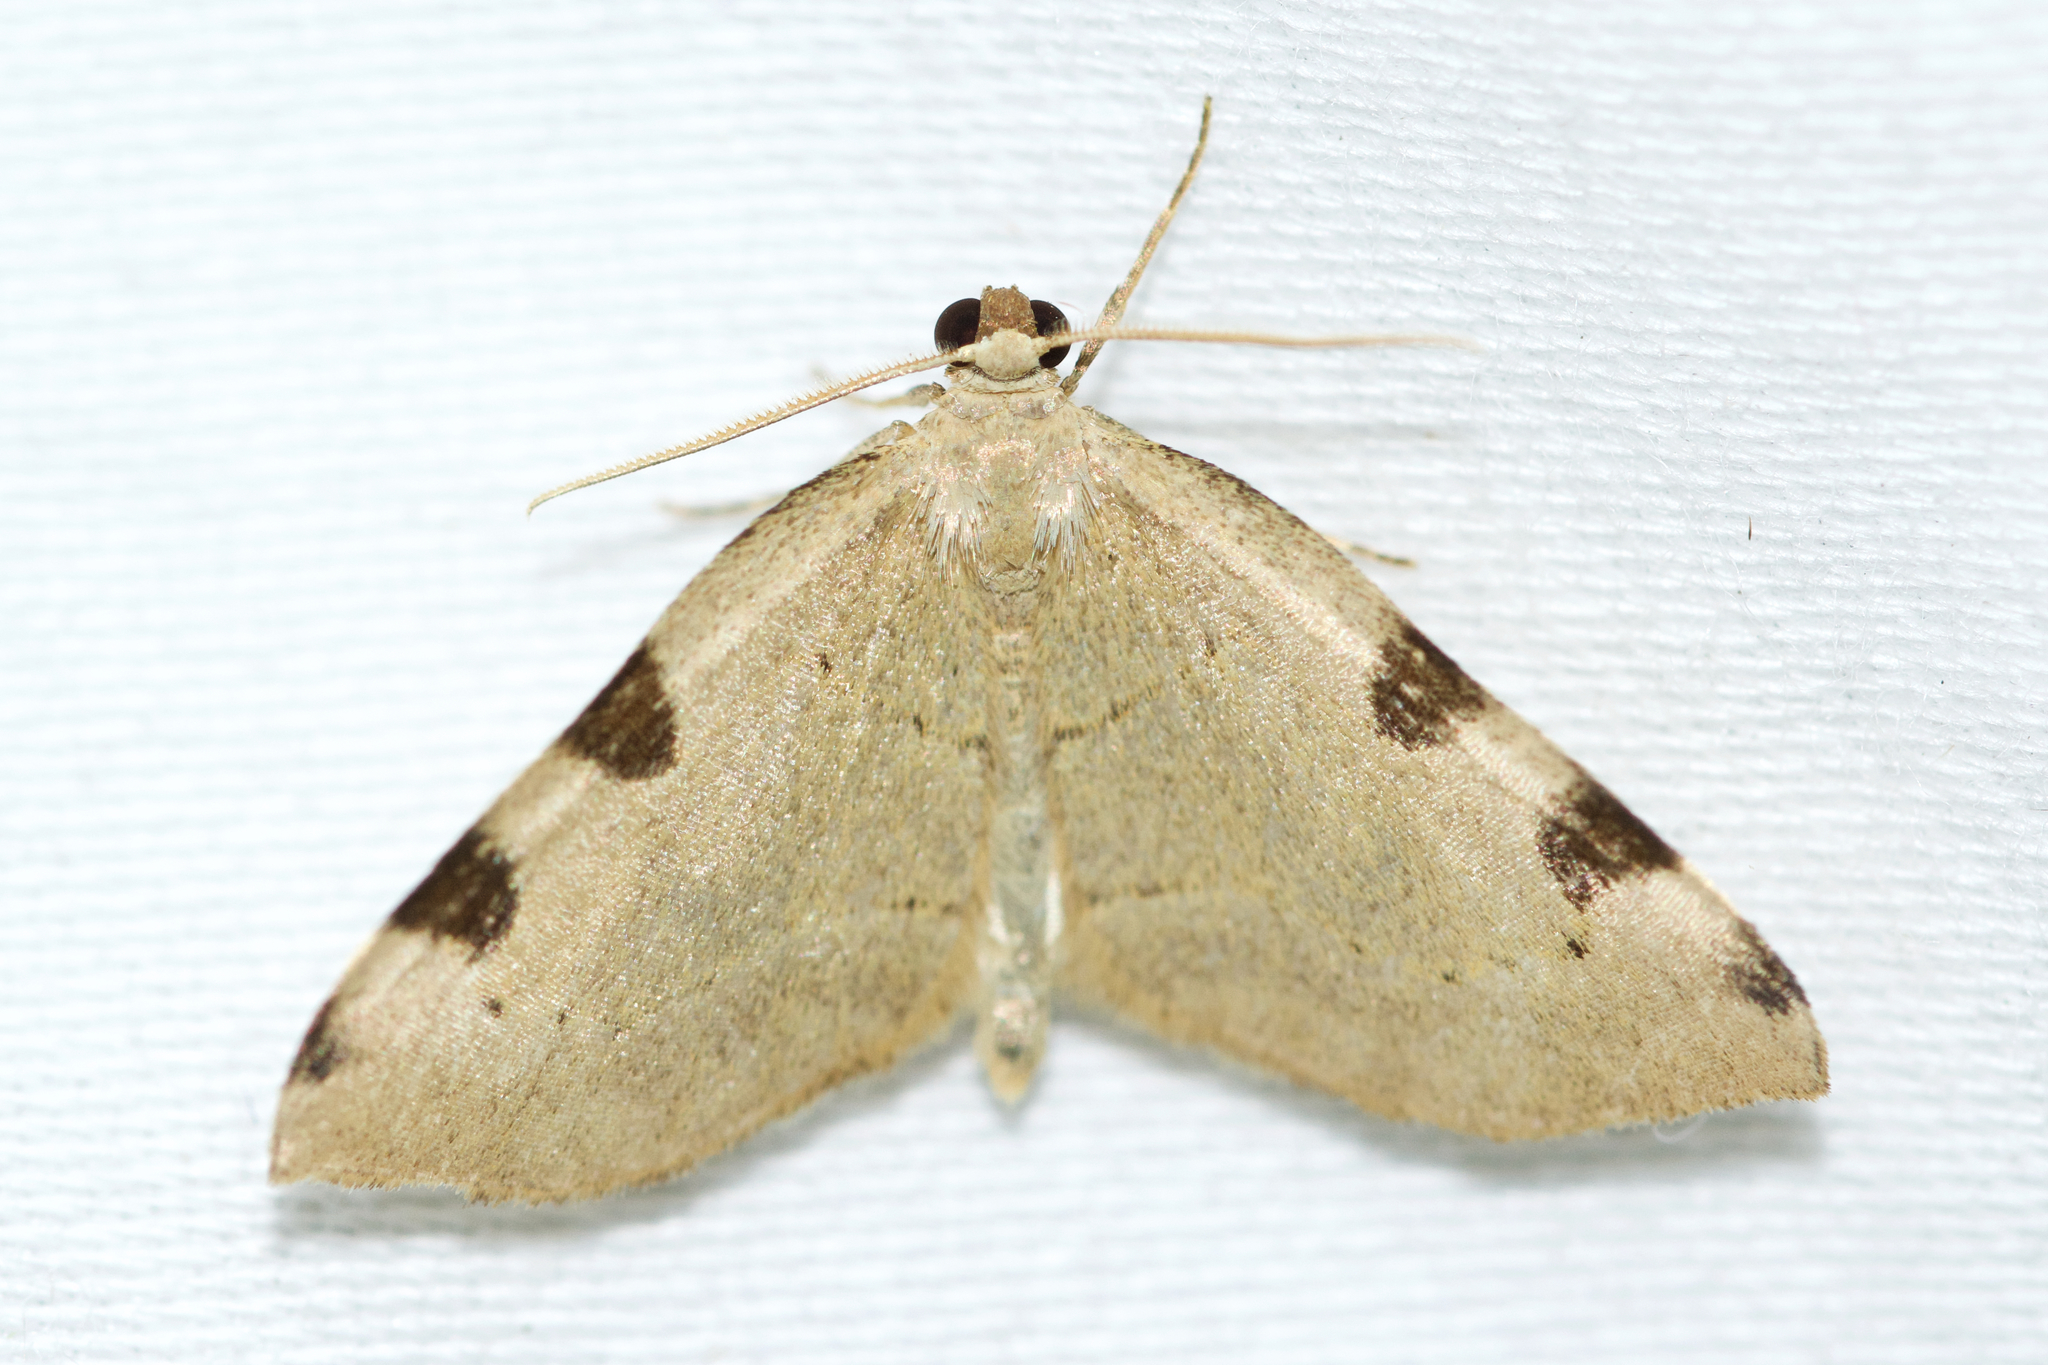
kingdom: Animalia
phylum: Arthropoda
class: Insecta
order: Lepidoptera
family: Geometridae
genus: Heterophleps
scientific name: Heterophleps triguttaria
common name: Three-spotted fillip
